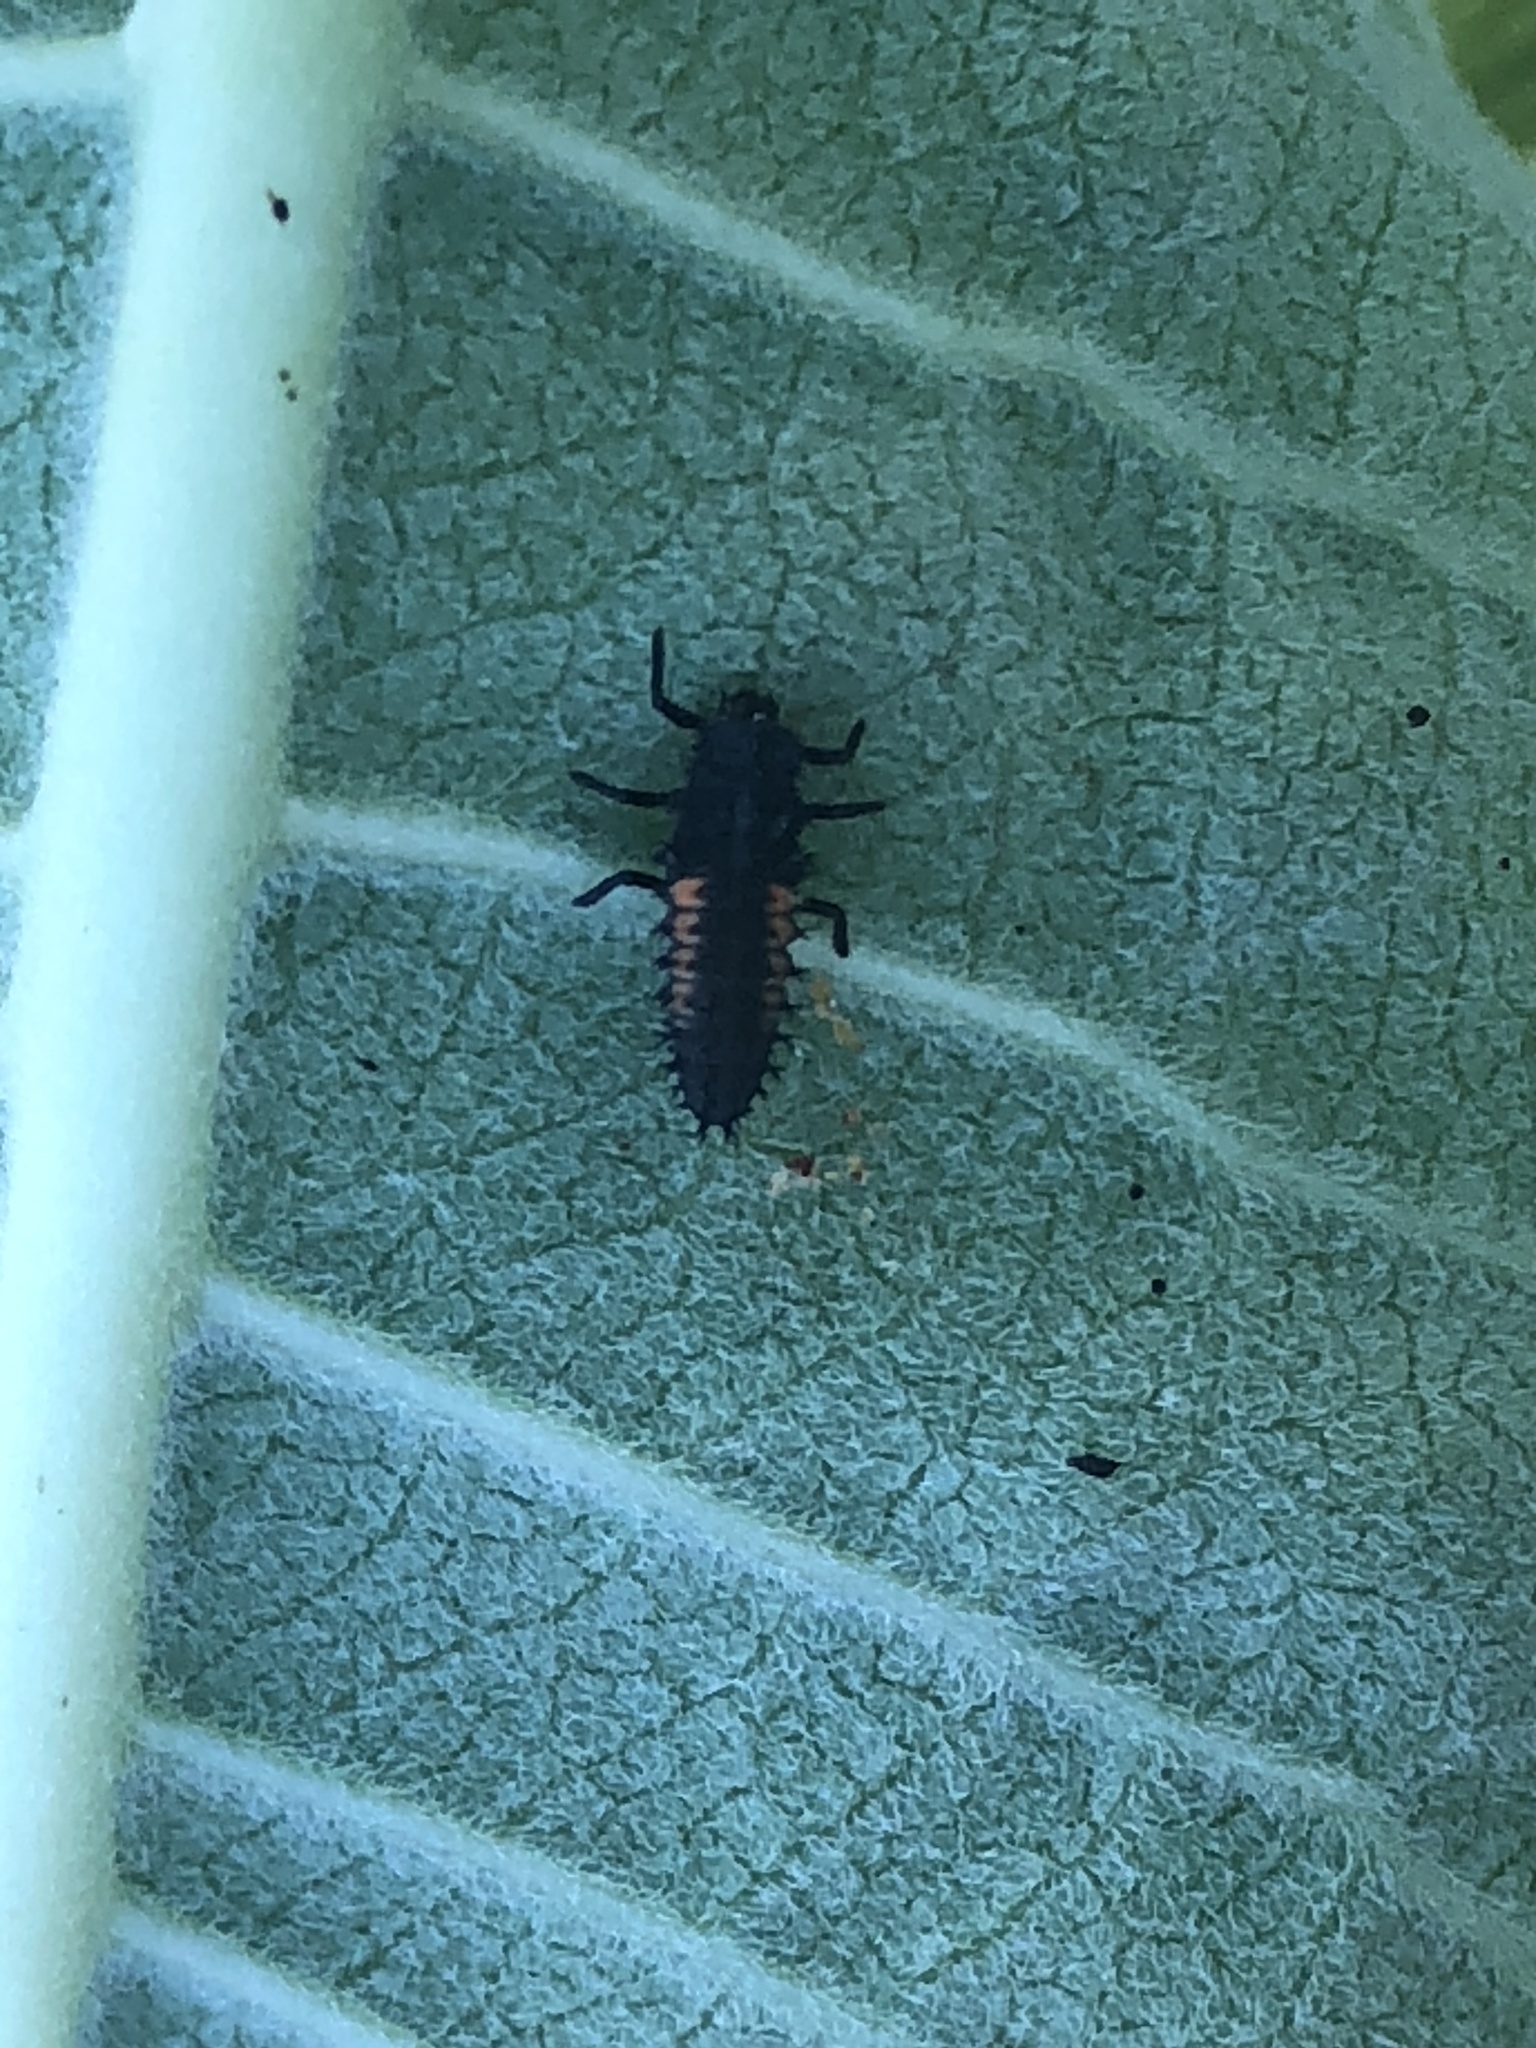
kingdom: Animalia
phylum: Arthropoda
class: Insecta
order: Coleoptera
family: Coccinellidae
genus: Harmonia
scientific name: Harmonia axyridis
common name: Harlequin ladybird
